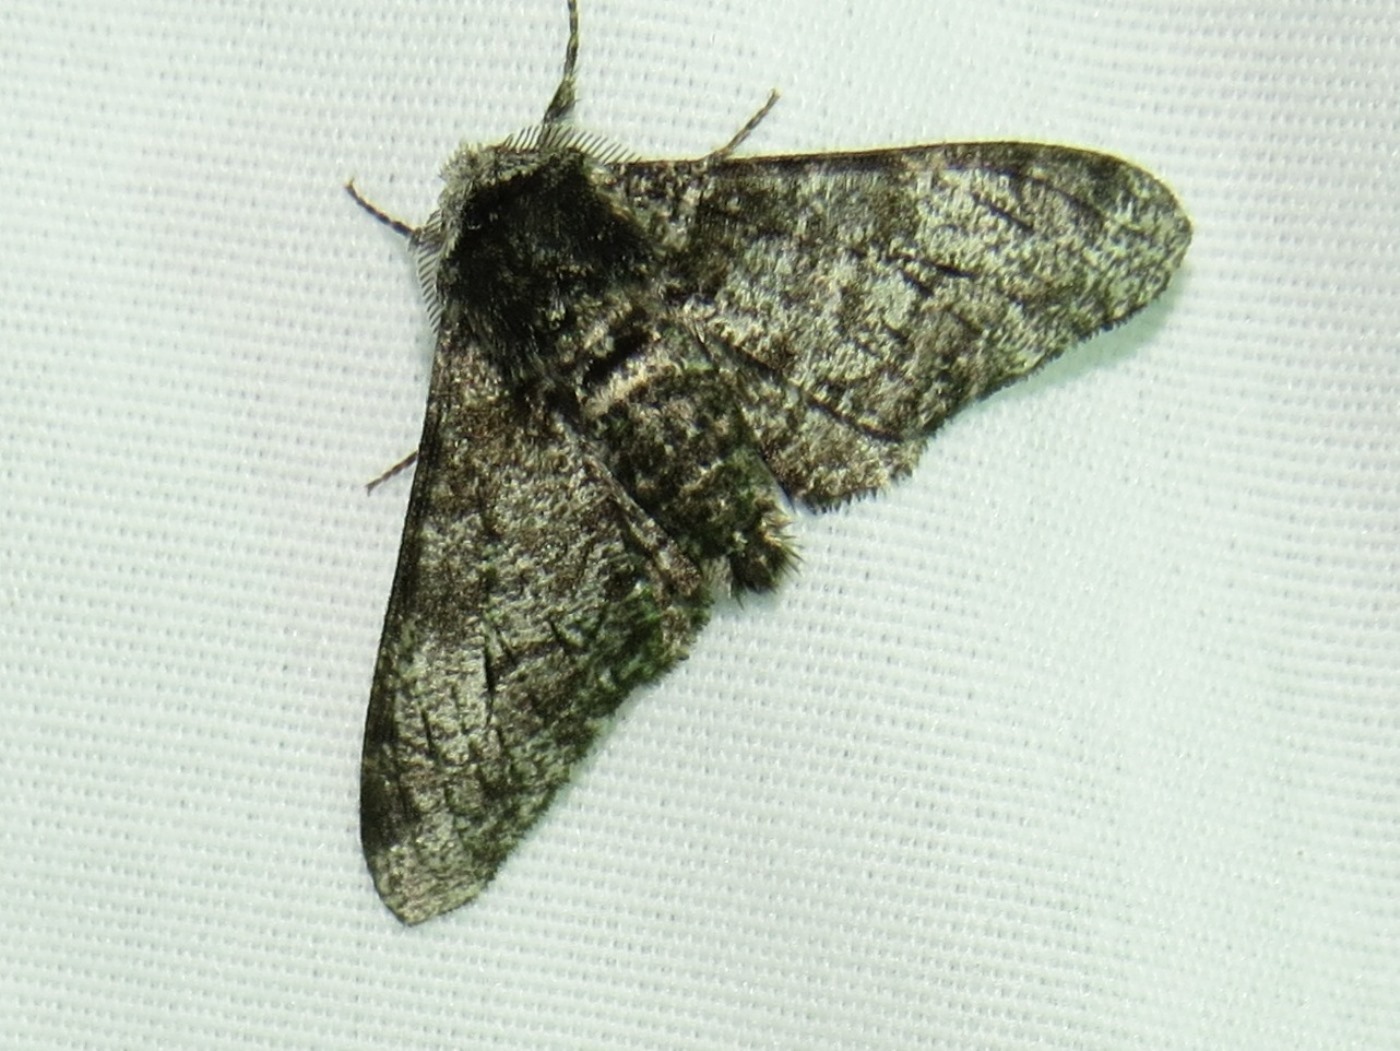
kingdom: Animalia
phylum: Arthropoda
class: Insecta
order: Lepidoptera
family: Geometridae
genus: Biston
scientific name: Biston betularia
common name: Peppered moth
